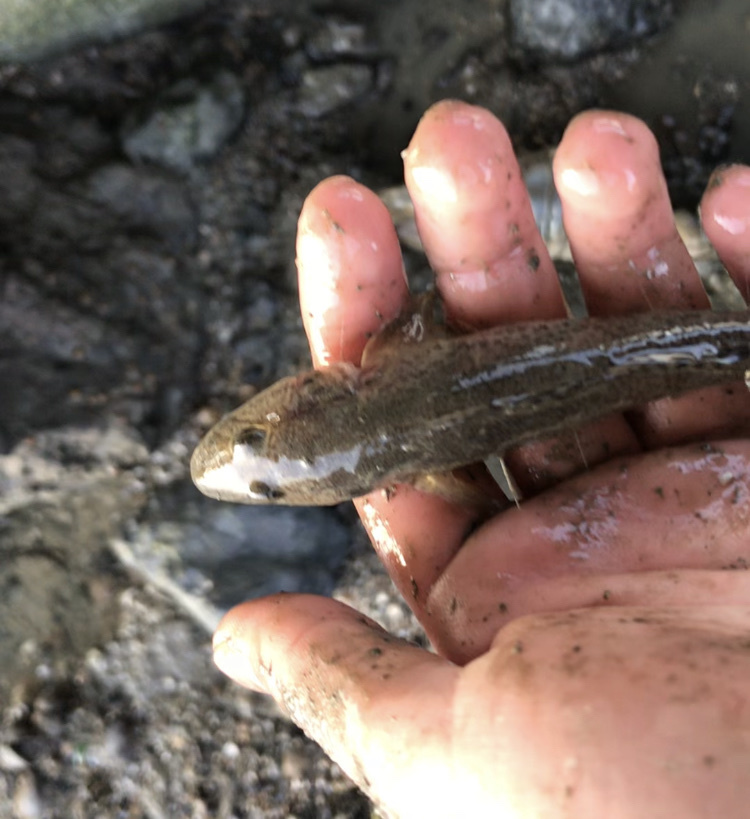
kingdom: Animalia
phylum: Chordata
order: Perciformes
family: Gobiidae
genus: Acanthogobius
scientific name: Acanthogobius flavimanus
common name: Yellowfin goby
